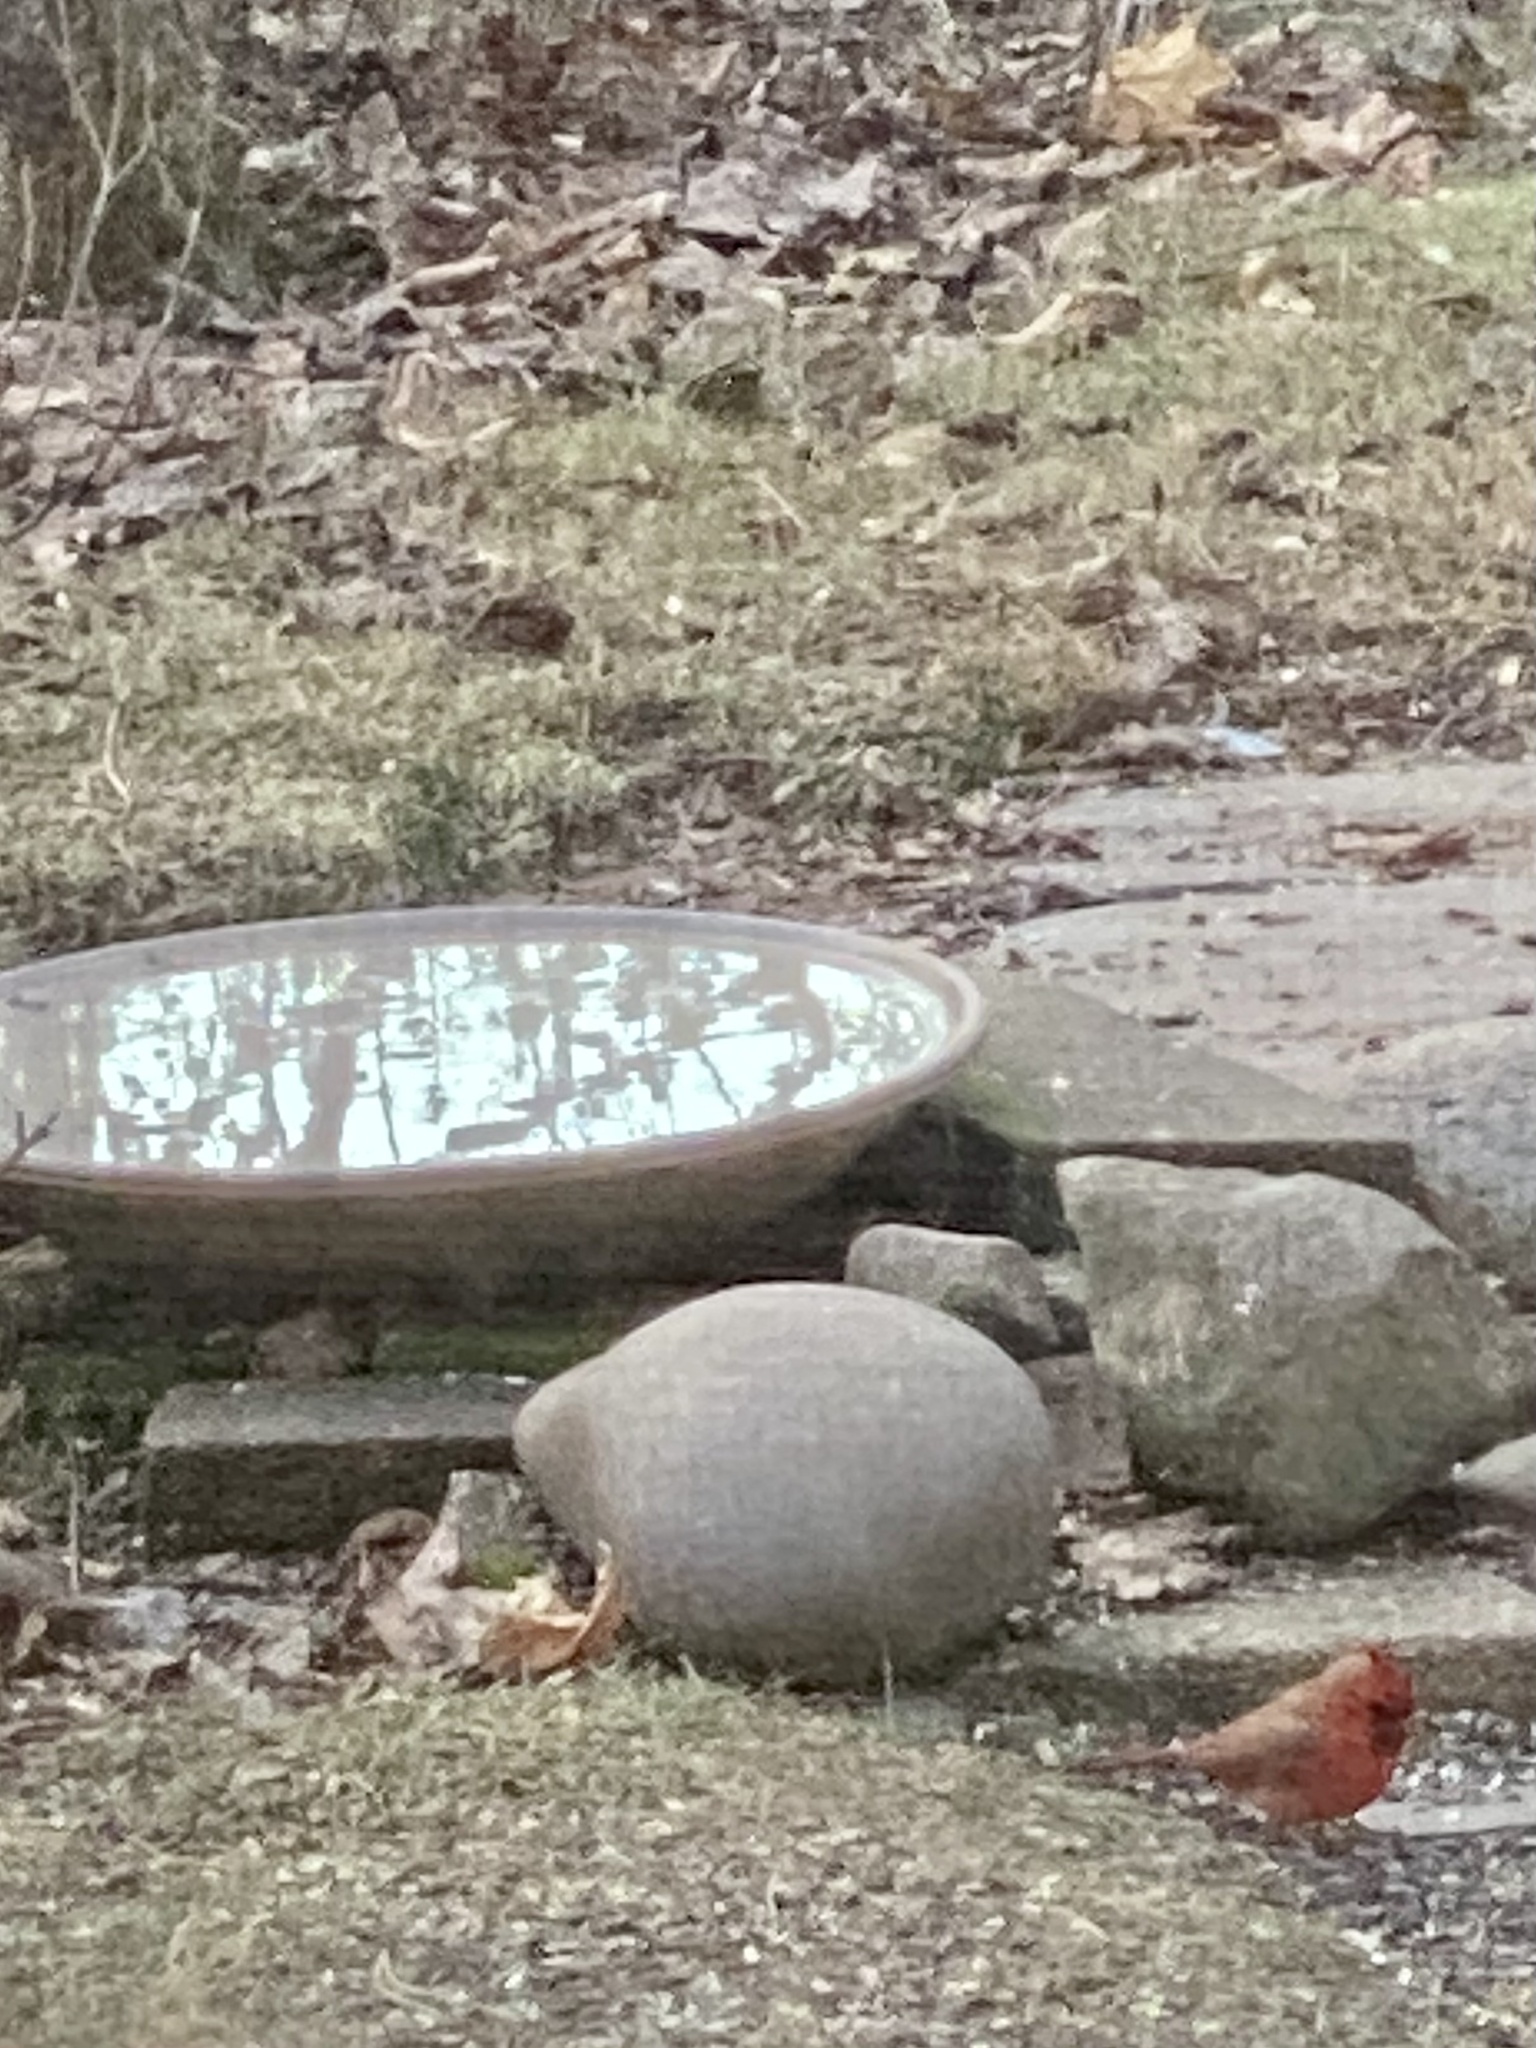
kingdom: Animalia
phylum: Chordata
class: Aves
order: Passeriformes
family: Cardinalidae
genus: Cardinalis
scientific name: Cardinalis cardinalis
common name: Northern cardinal
